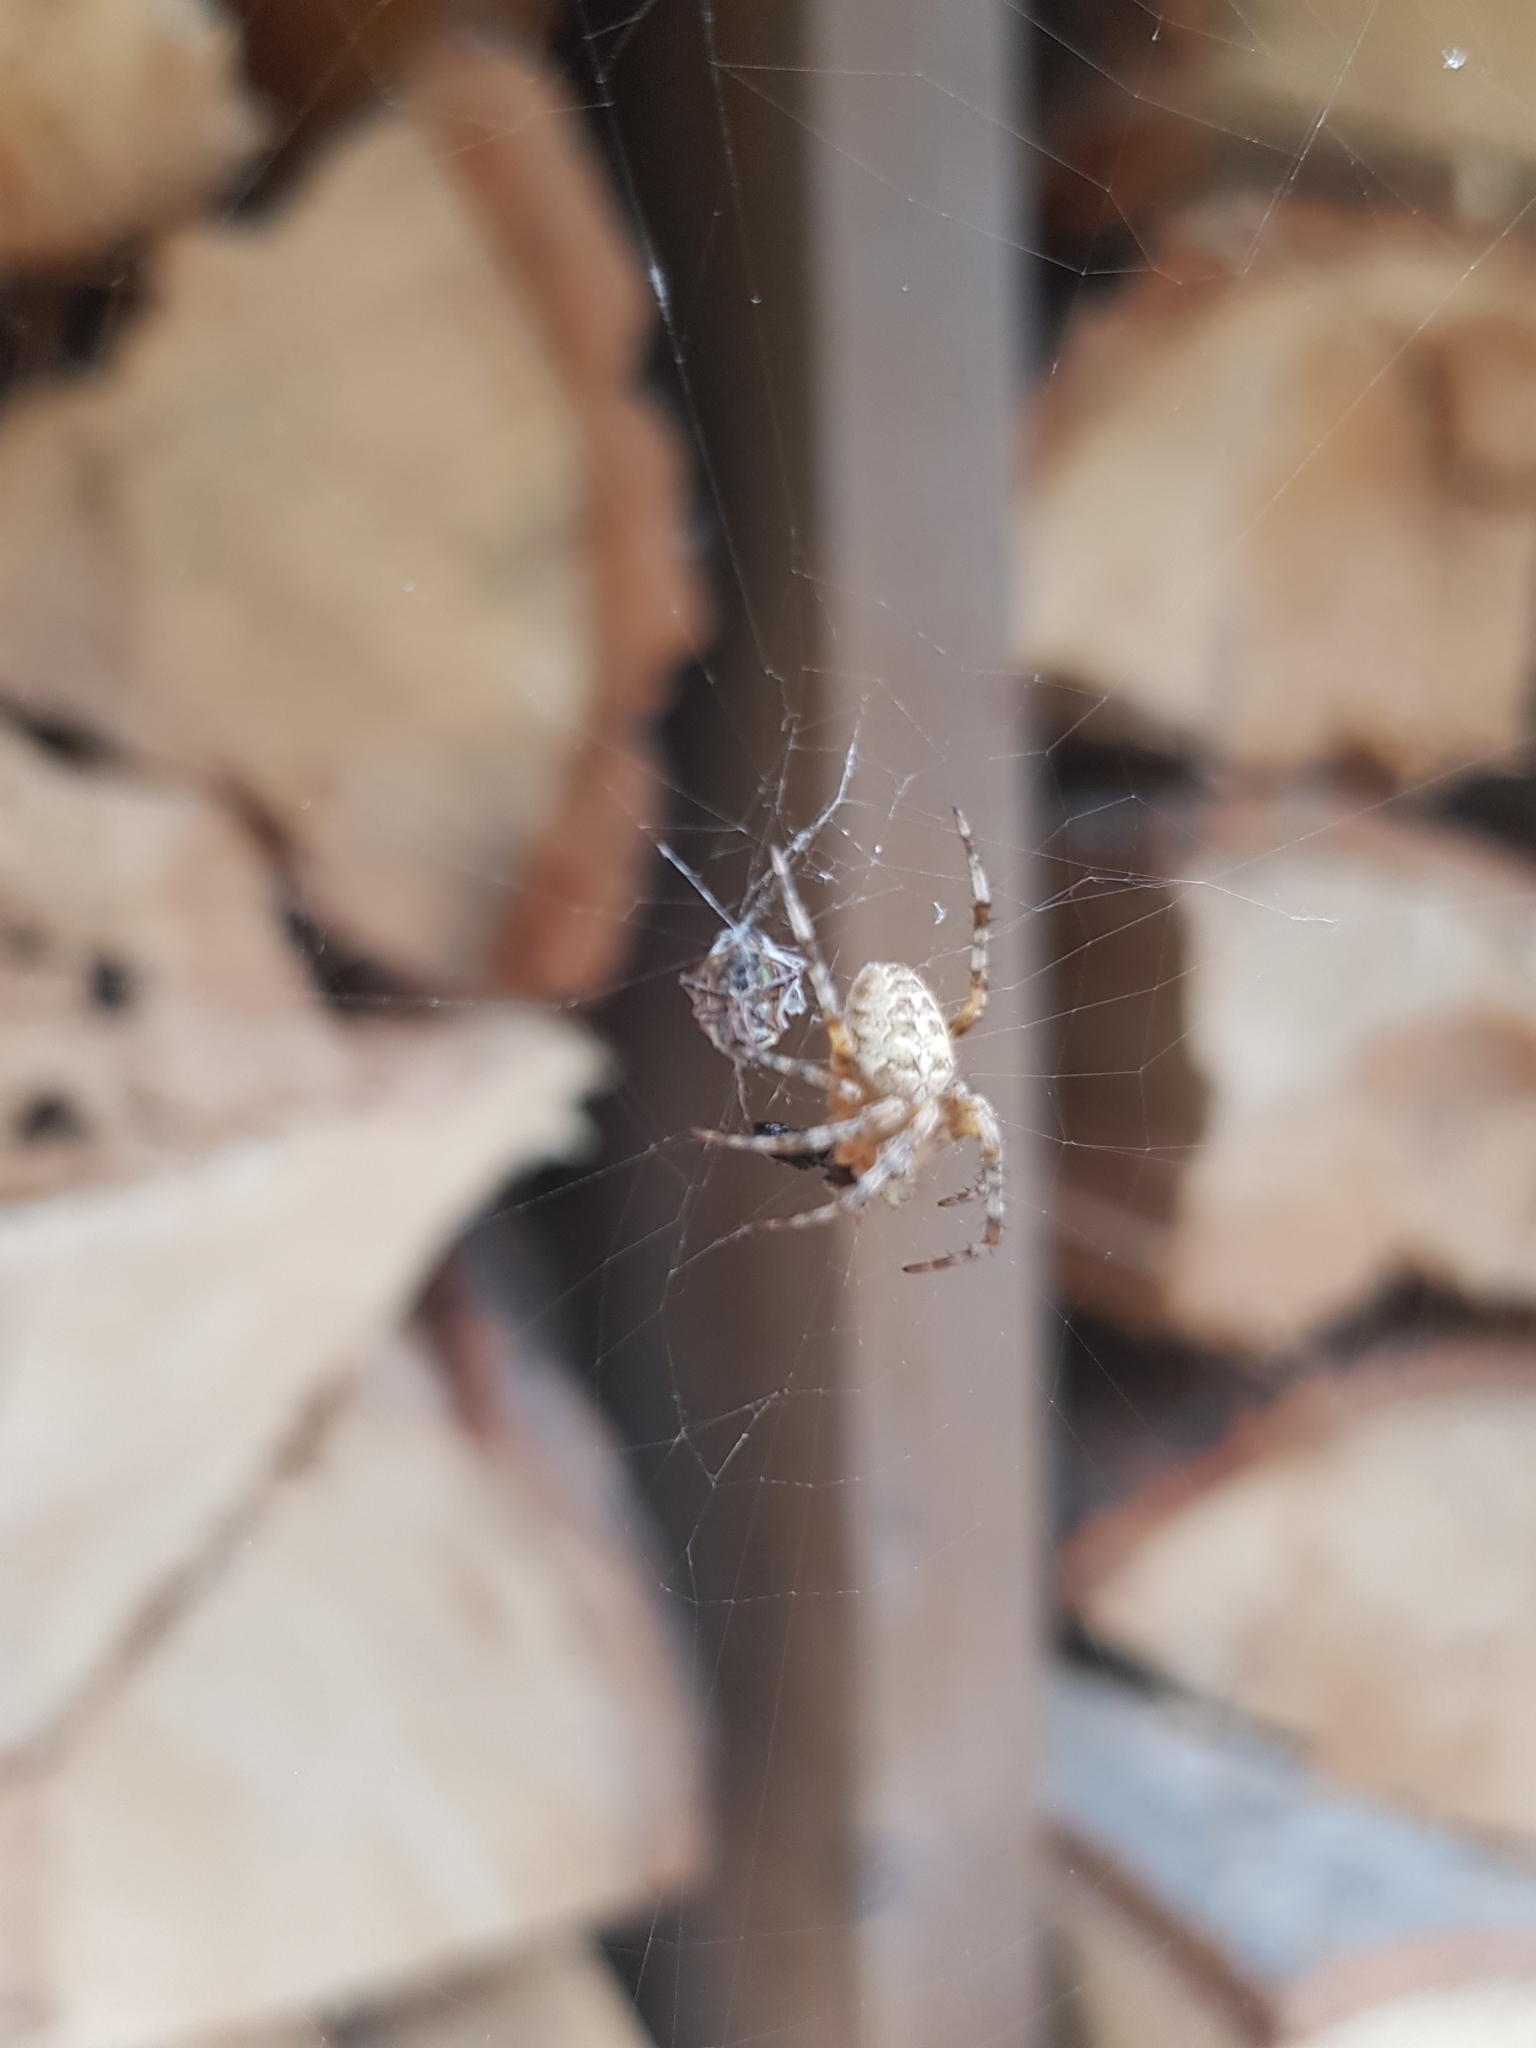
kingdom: Animalia
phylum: Arthropoda
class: Arachnida
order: Araneae
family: Araneidae
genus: Araneus
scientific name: Araneus diadematus
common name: Cross orbweaver
